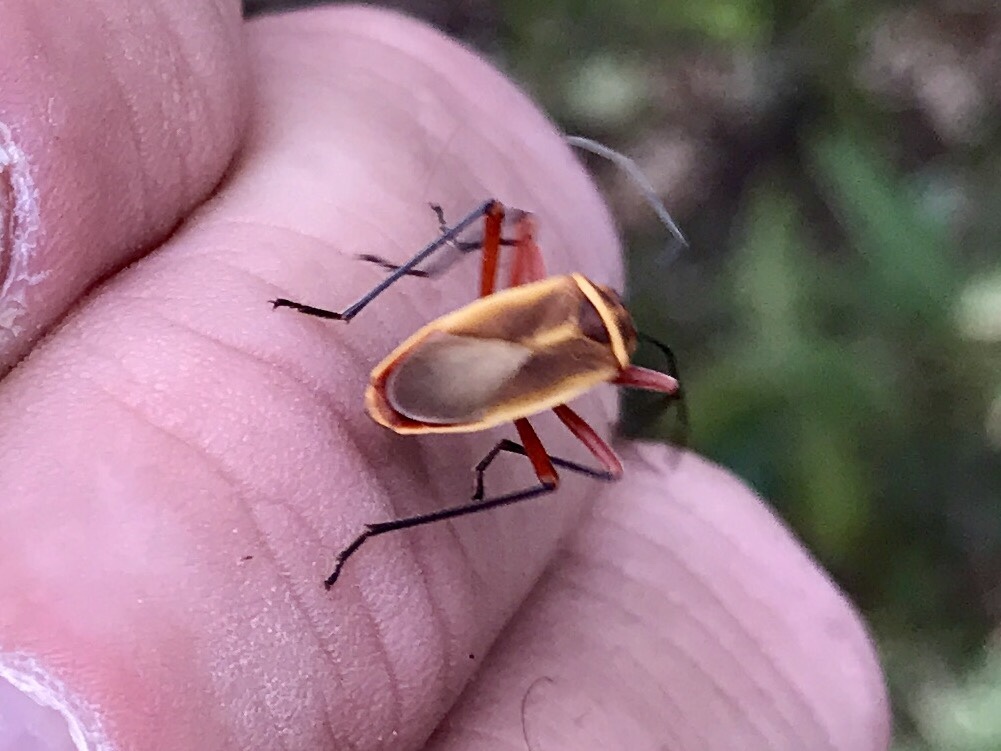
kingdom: Animalia
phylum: Arthropoda
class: Insecta
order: Hemiptera
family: Largidae
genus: Stenomacra
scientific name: Stenomacra marginella
